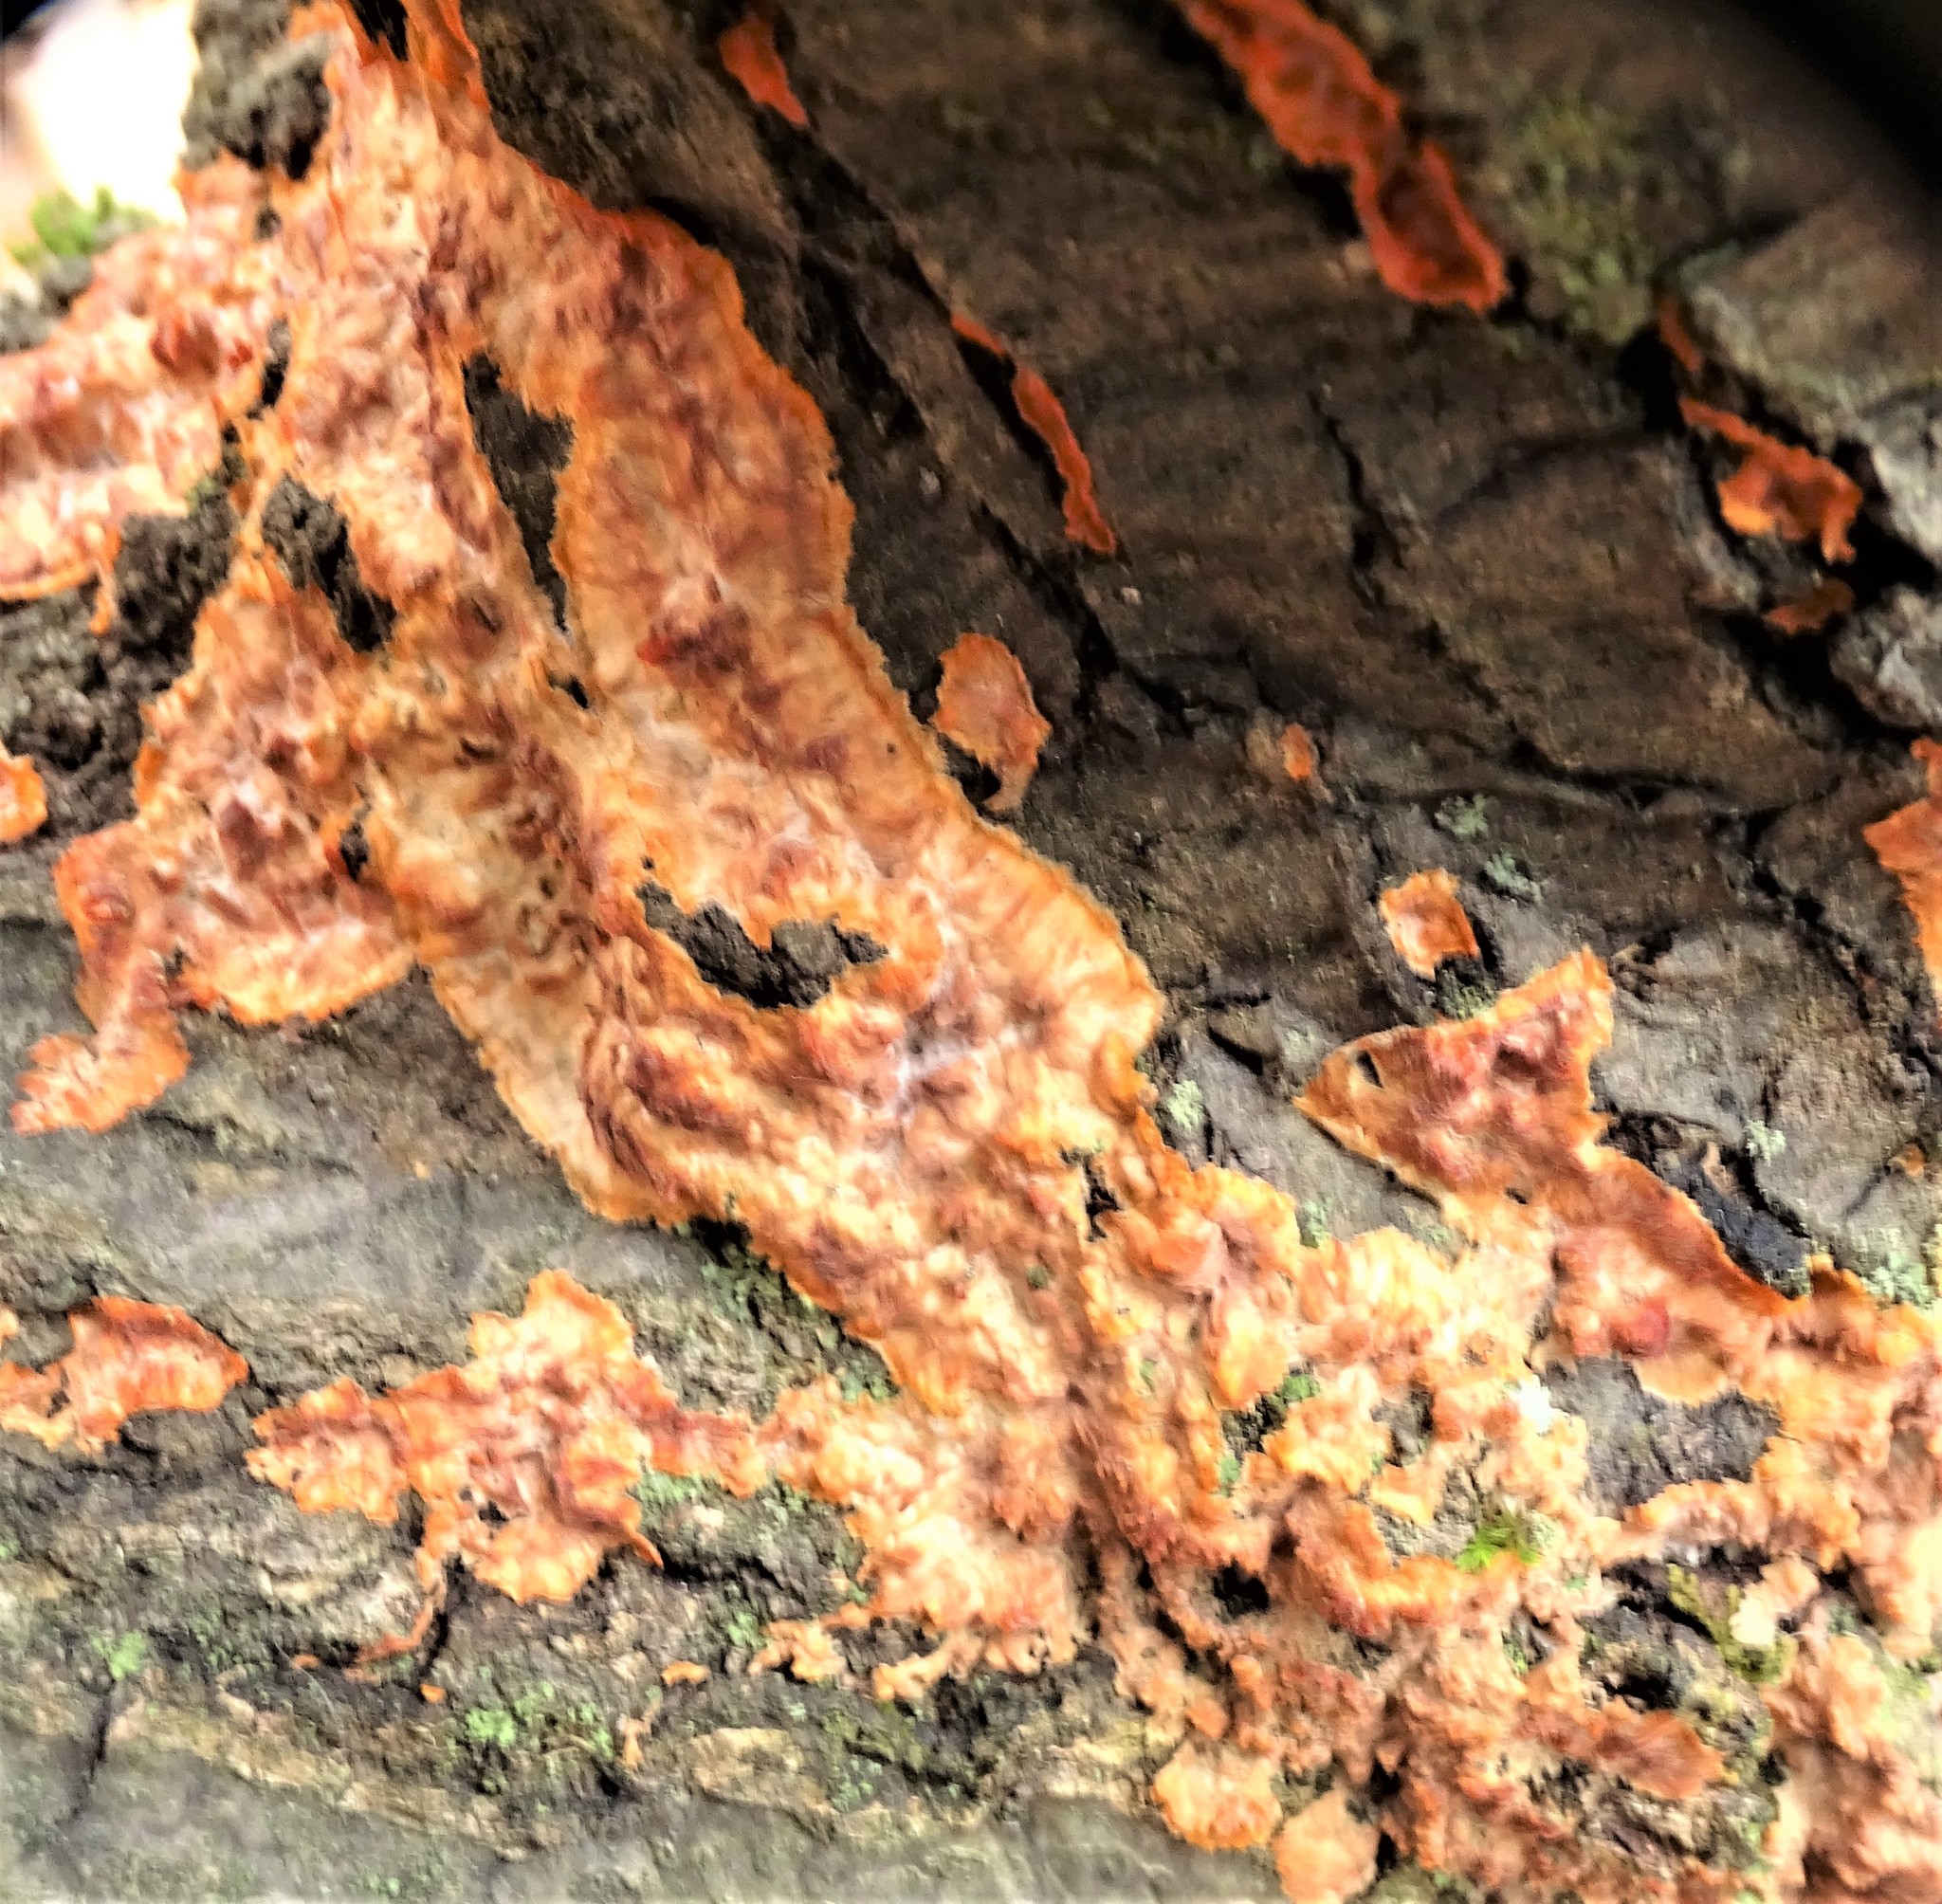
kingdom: Fungi
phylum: Basidiomycota
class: Agaricomycetes
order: Polyporales
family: Meruliaceae
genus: Phlebia
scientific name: Phlebia radiata
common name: Wrinkled crust
